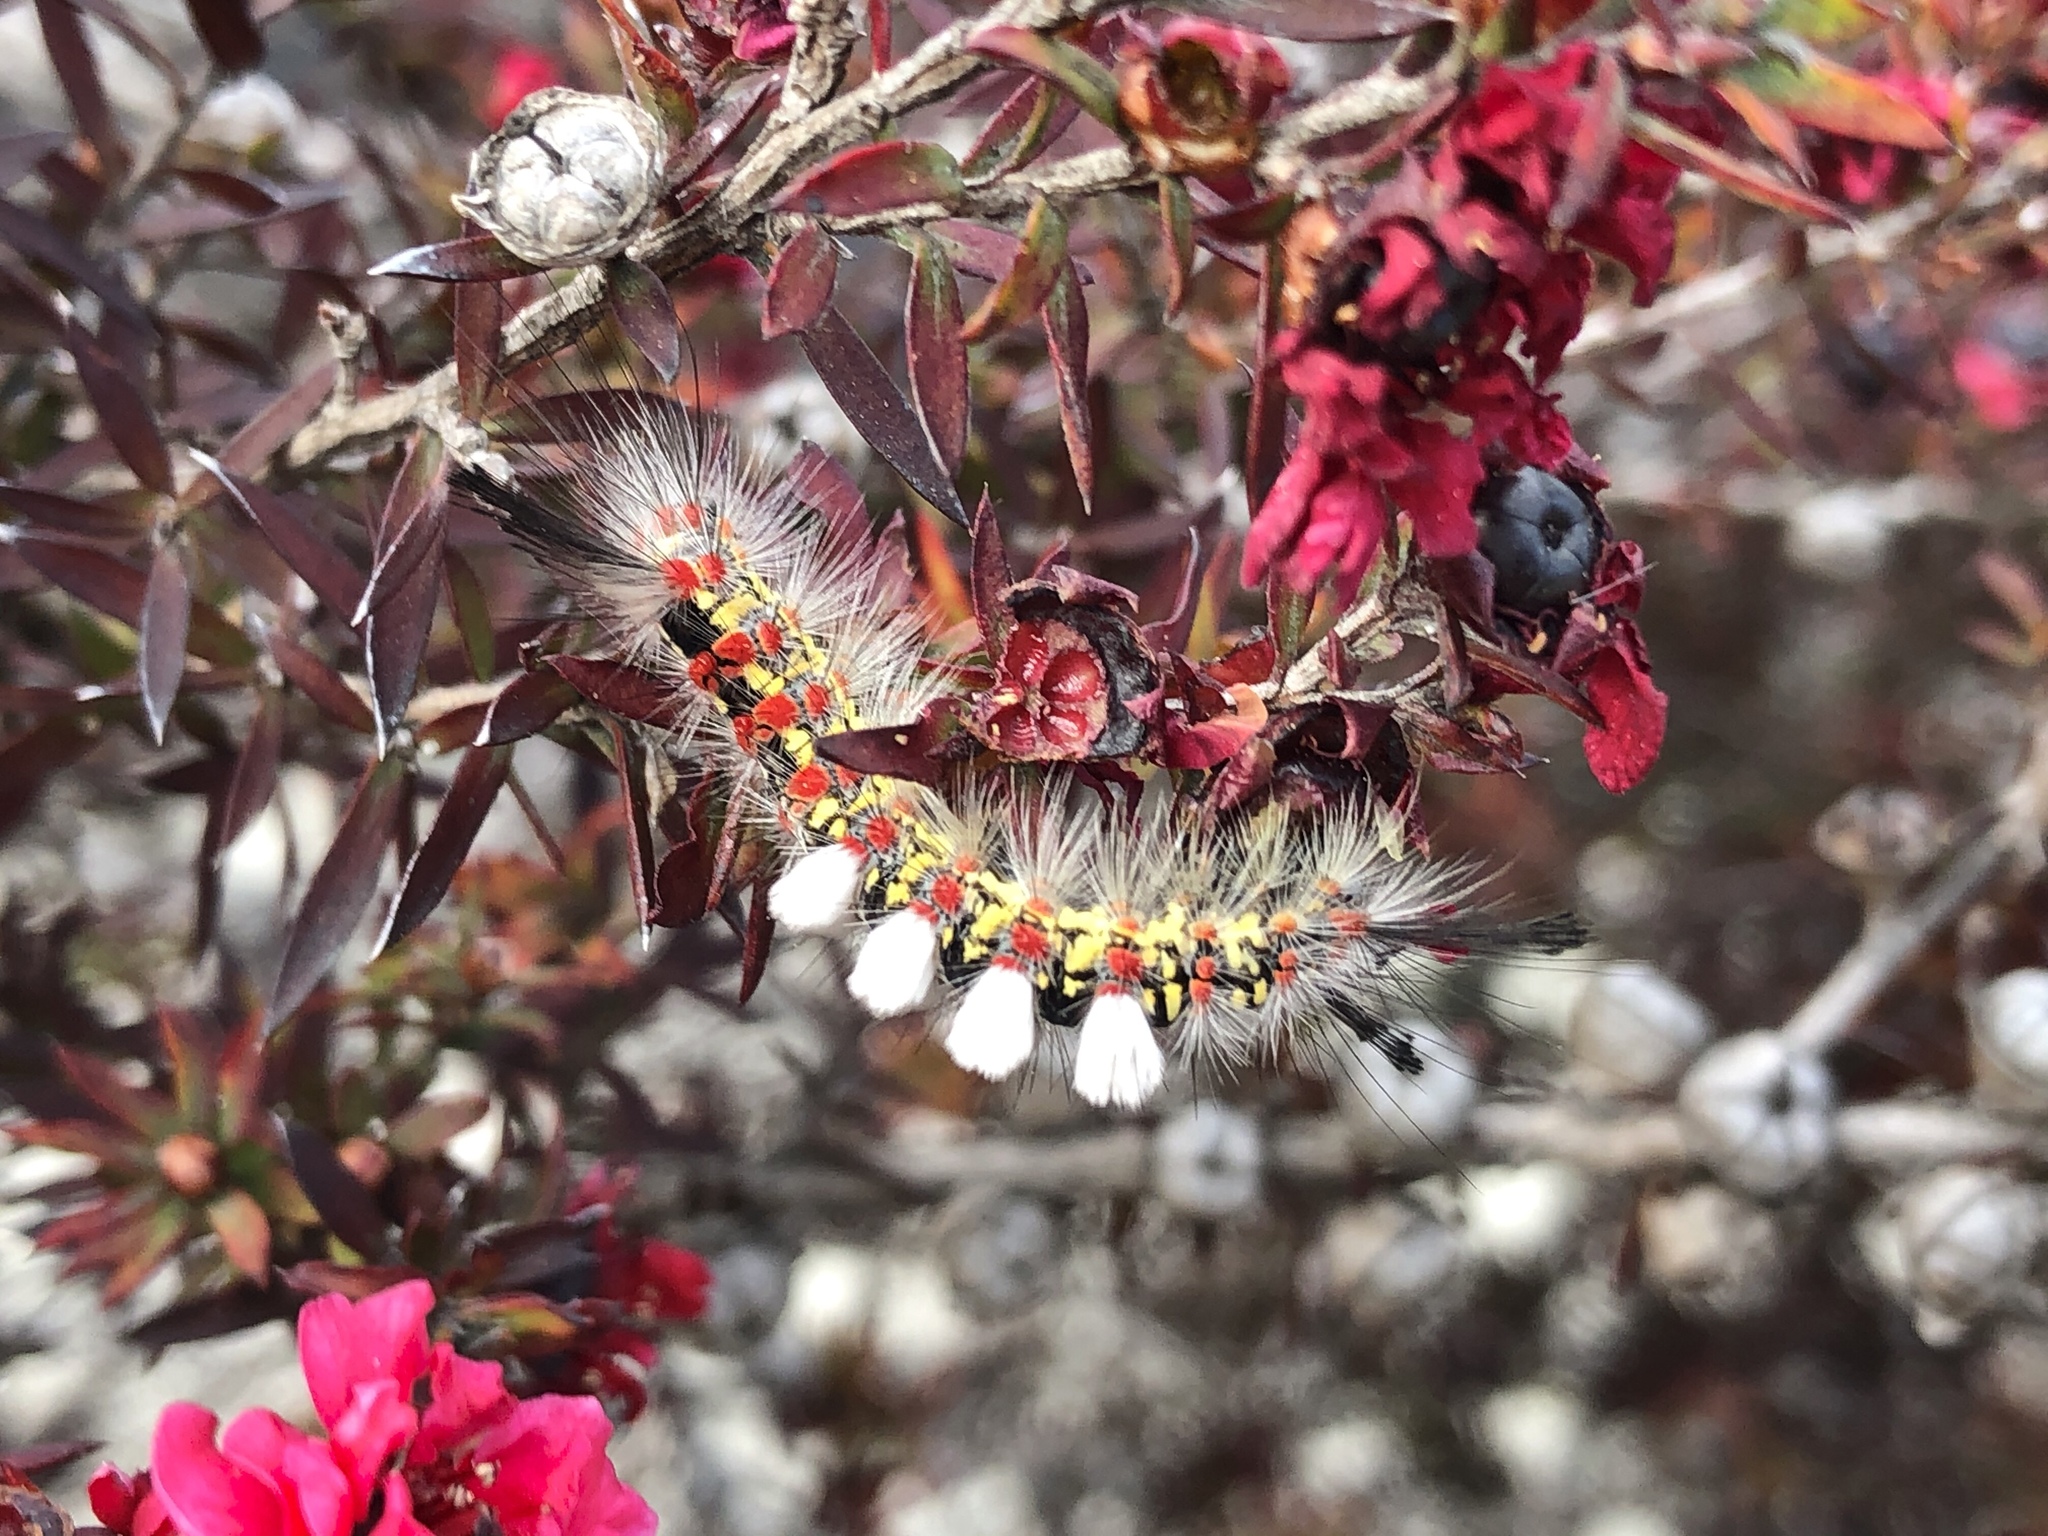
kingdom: Animalia
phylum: Arthropoda
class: Insecta
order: Lepidoptera
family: Erebidae
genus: Orgyia
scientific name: Orgyia vetusta
